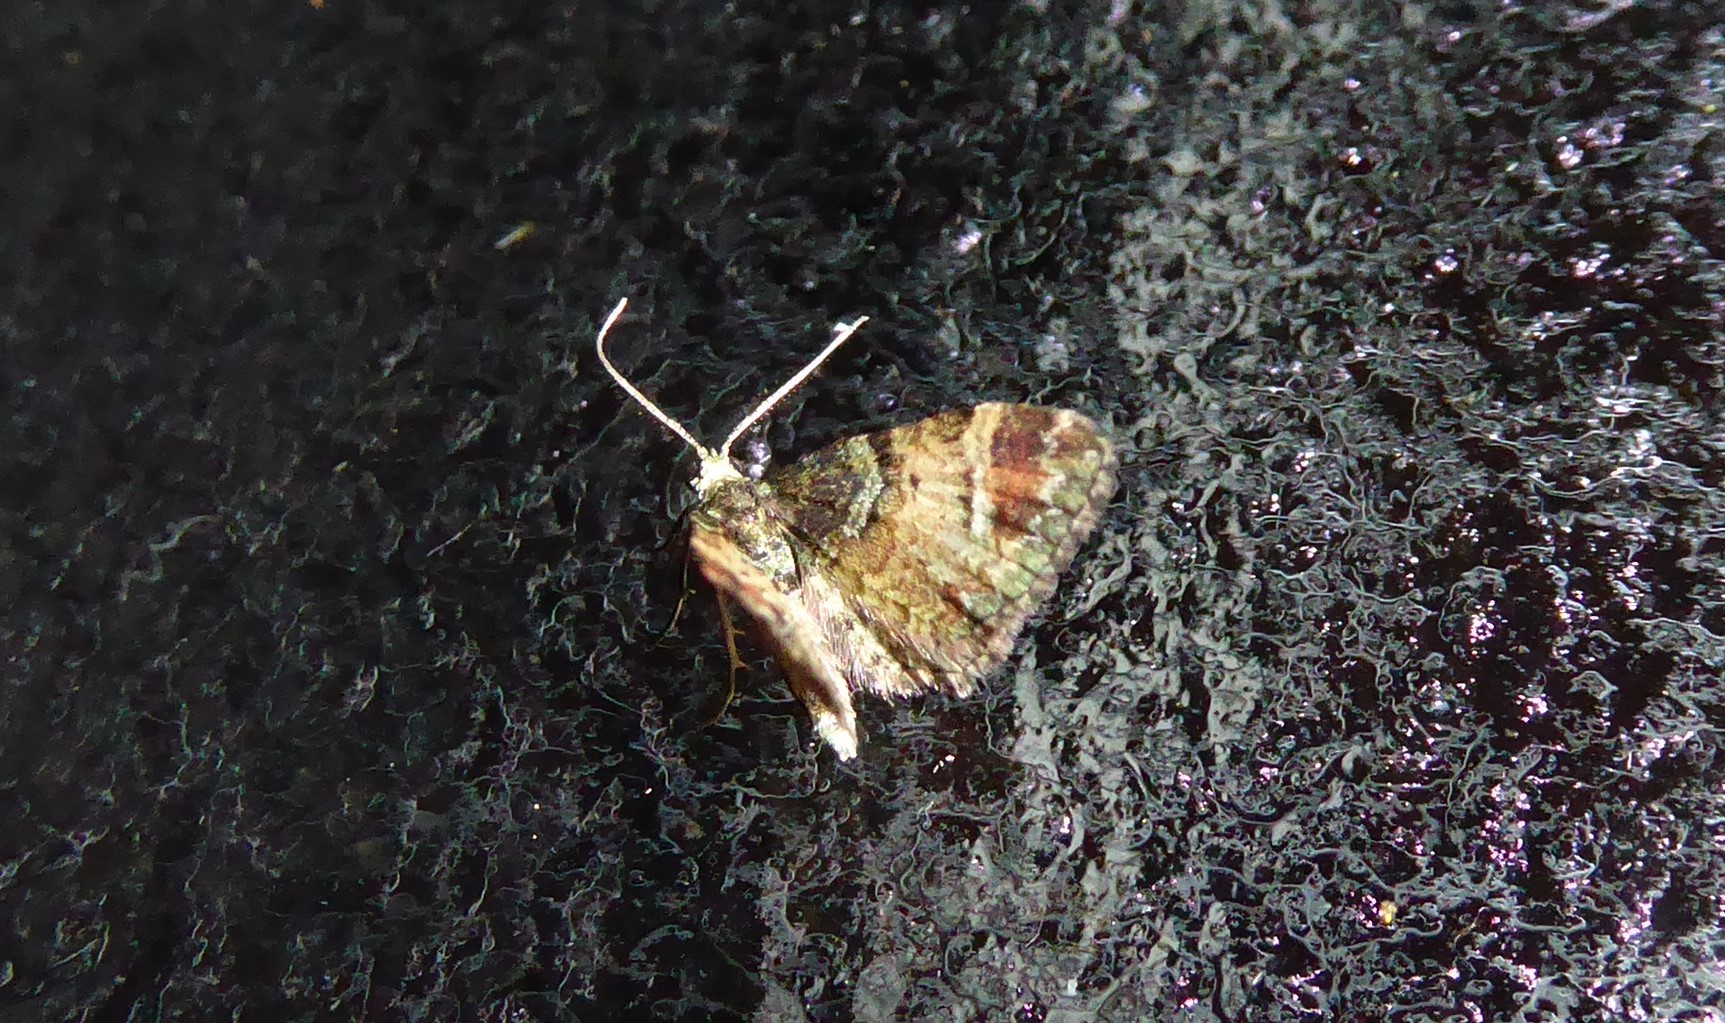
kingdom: Animalia
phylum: Arthropoda
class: Insecta
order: Lepidoptera
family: Geometridae
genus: Pasiphila
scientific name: Pasiphila sandycias
